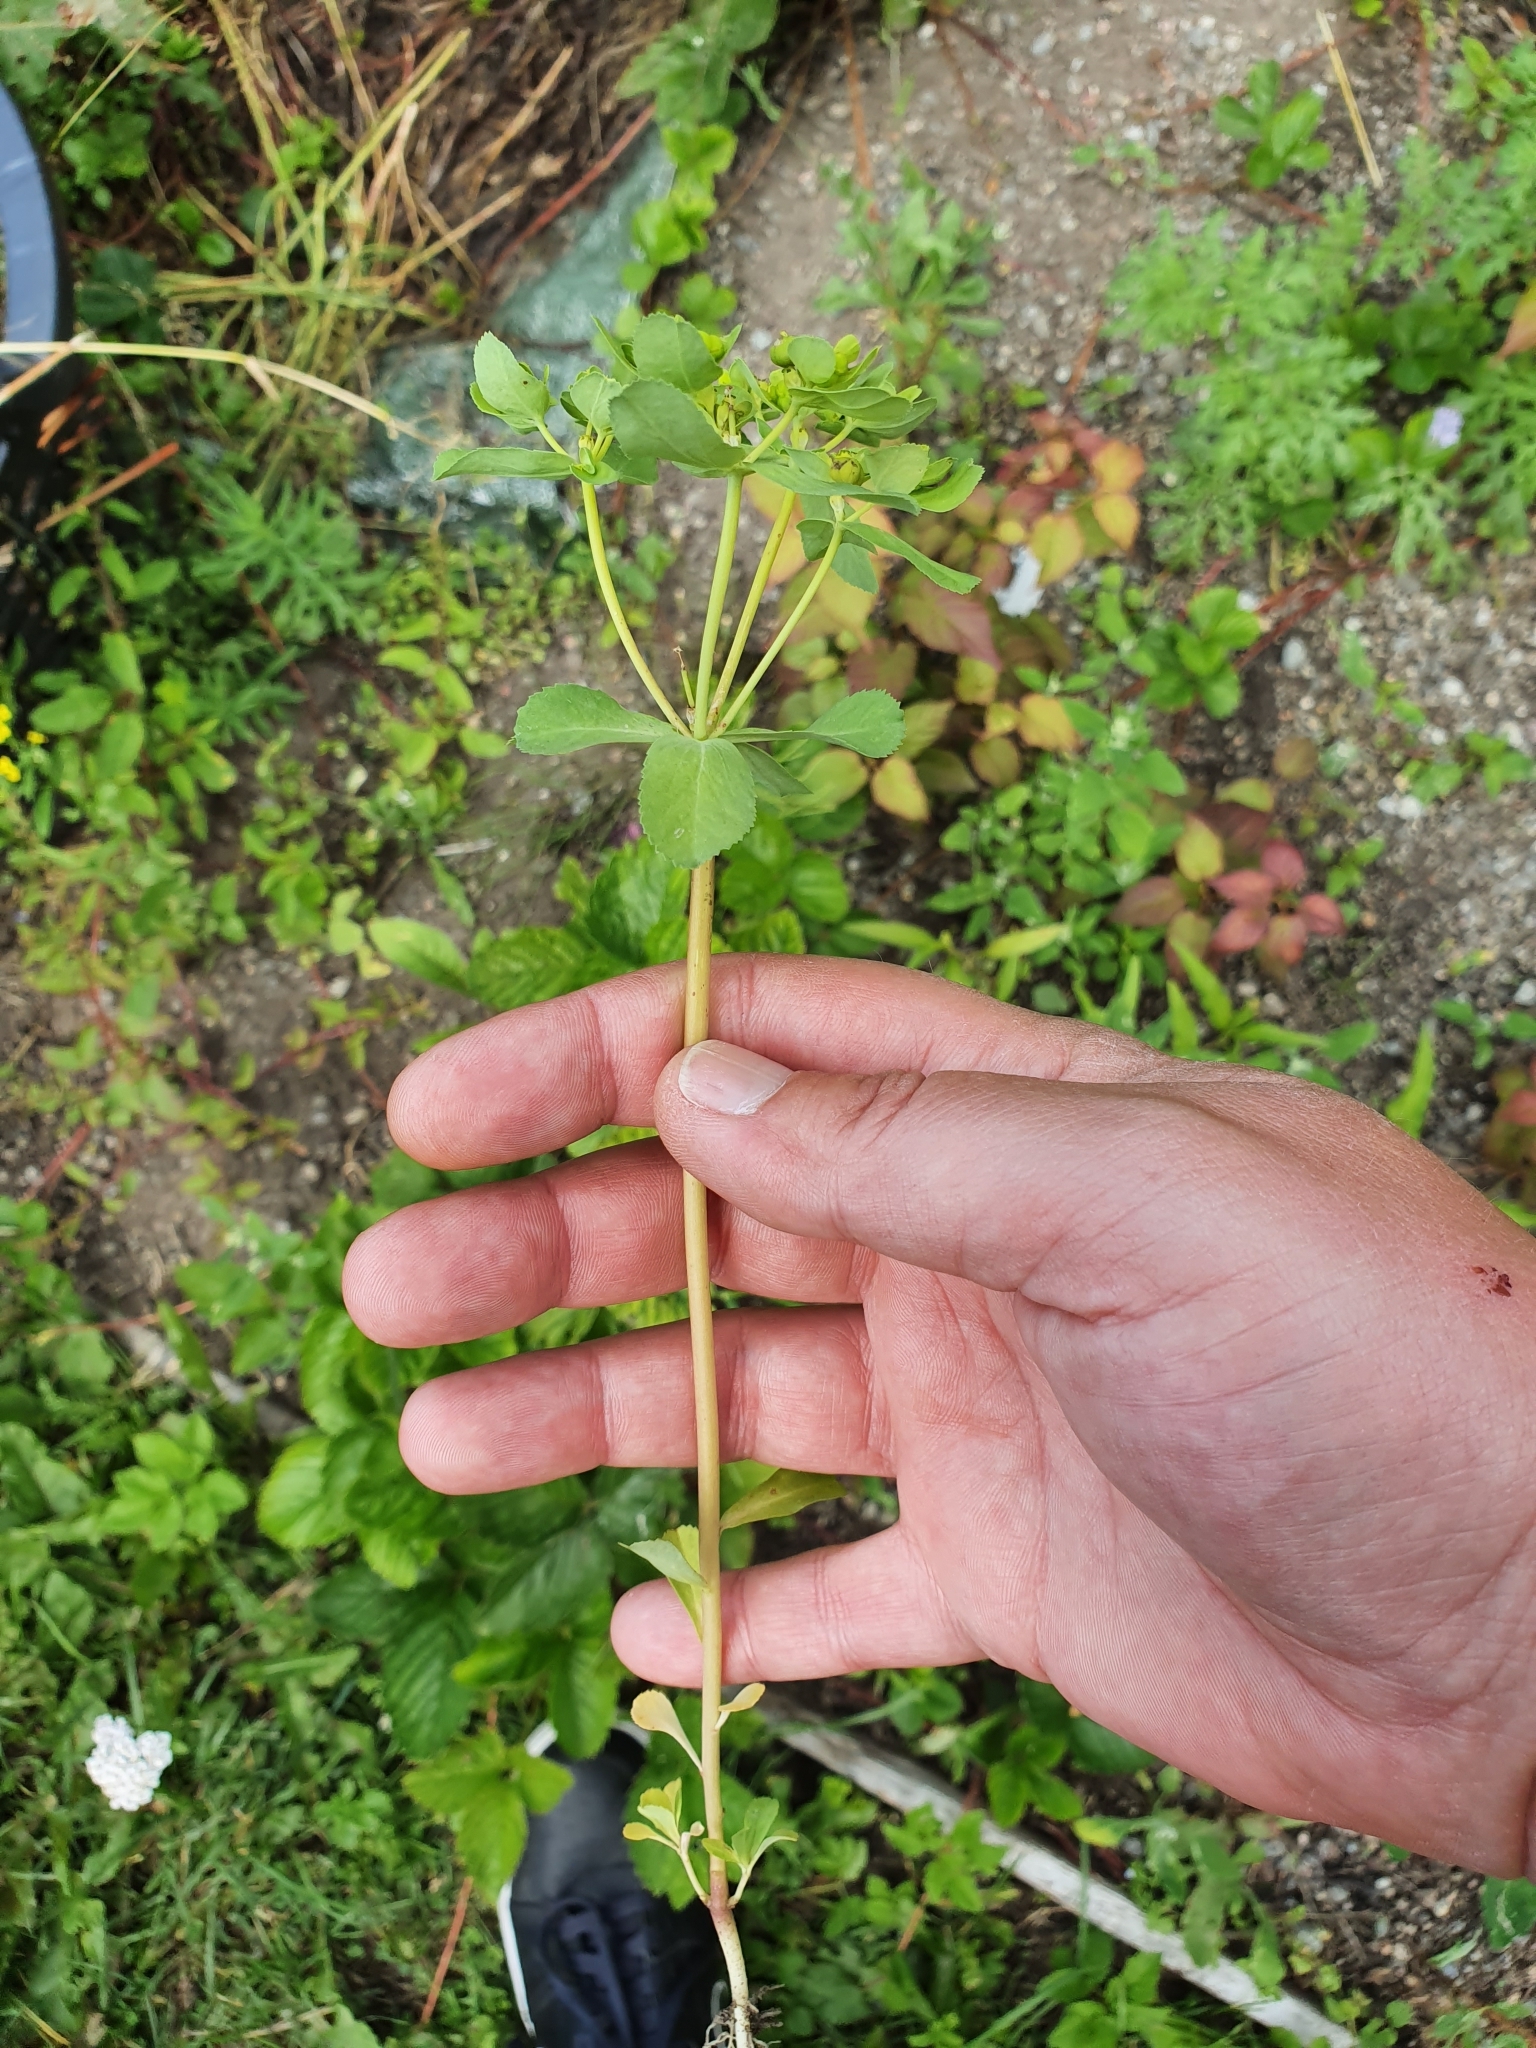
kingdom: Plantae
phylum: Tracheophyta
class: Magnoliopsida
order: Malpighiales
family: Euphorbiaceae
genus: Euphorbia
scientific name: Euphorbia helioscopia
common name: Sun spurge
